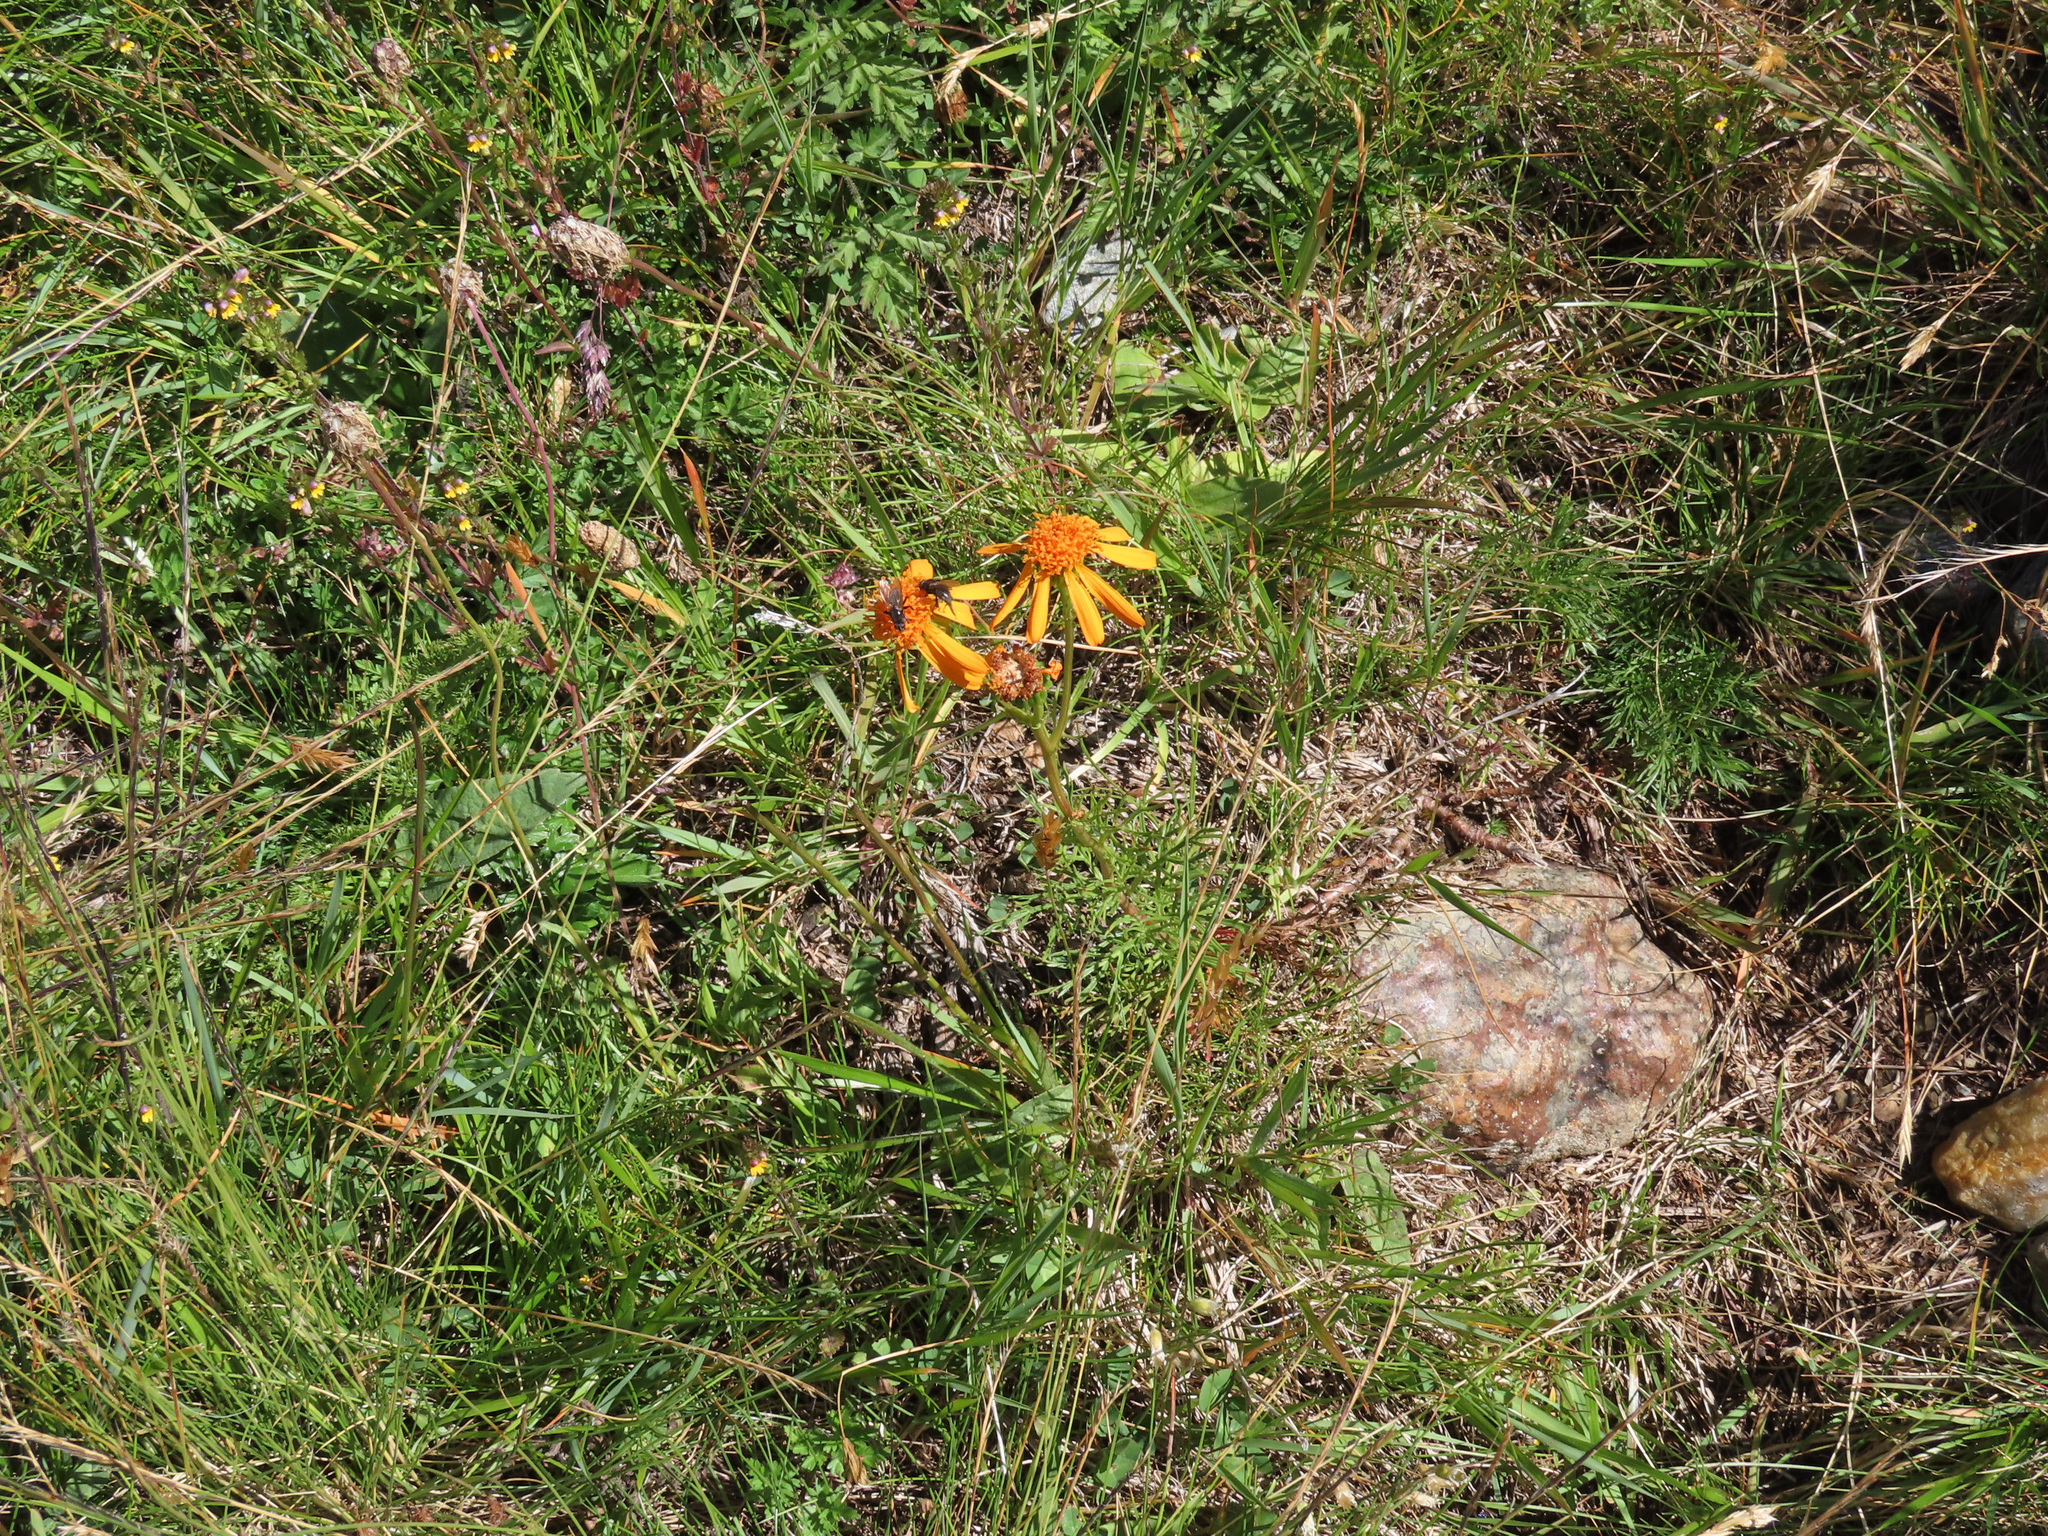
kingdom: Plantae
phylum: Tracheophyta
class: Magnoliopsida
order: Asterales
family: Asteraceae
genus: Jacobaea
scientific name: Jacobaea abrotanifolia
